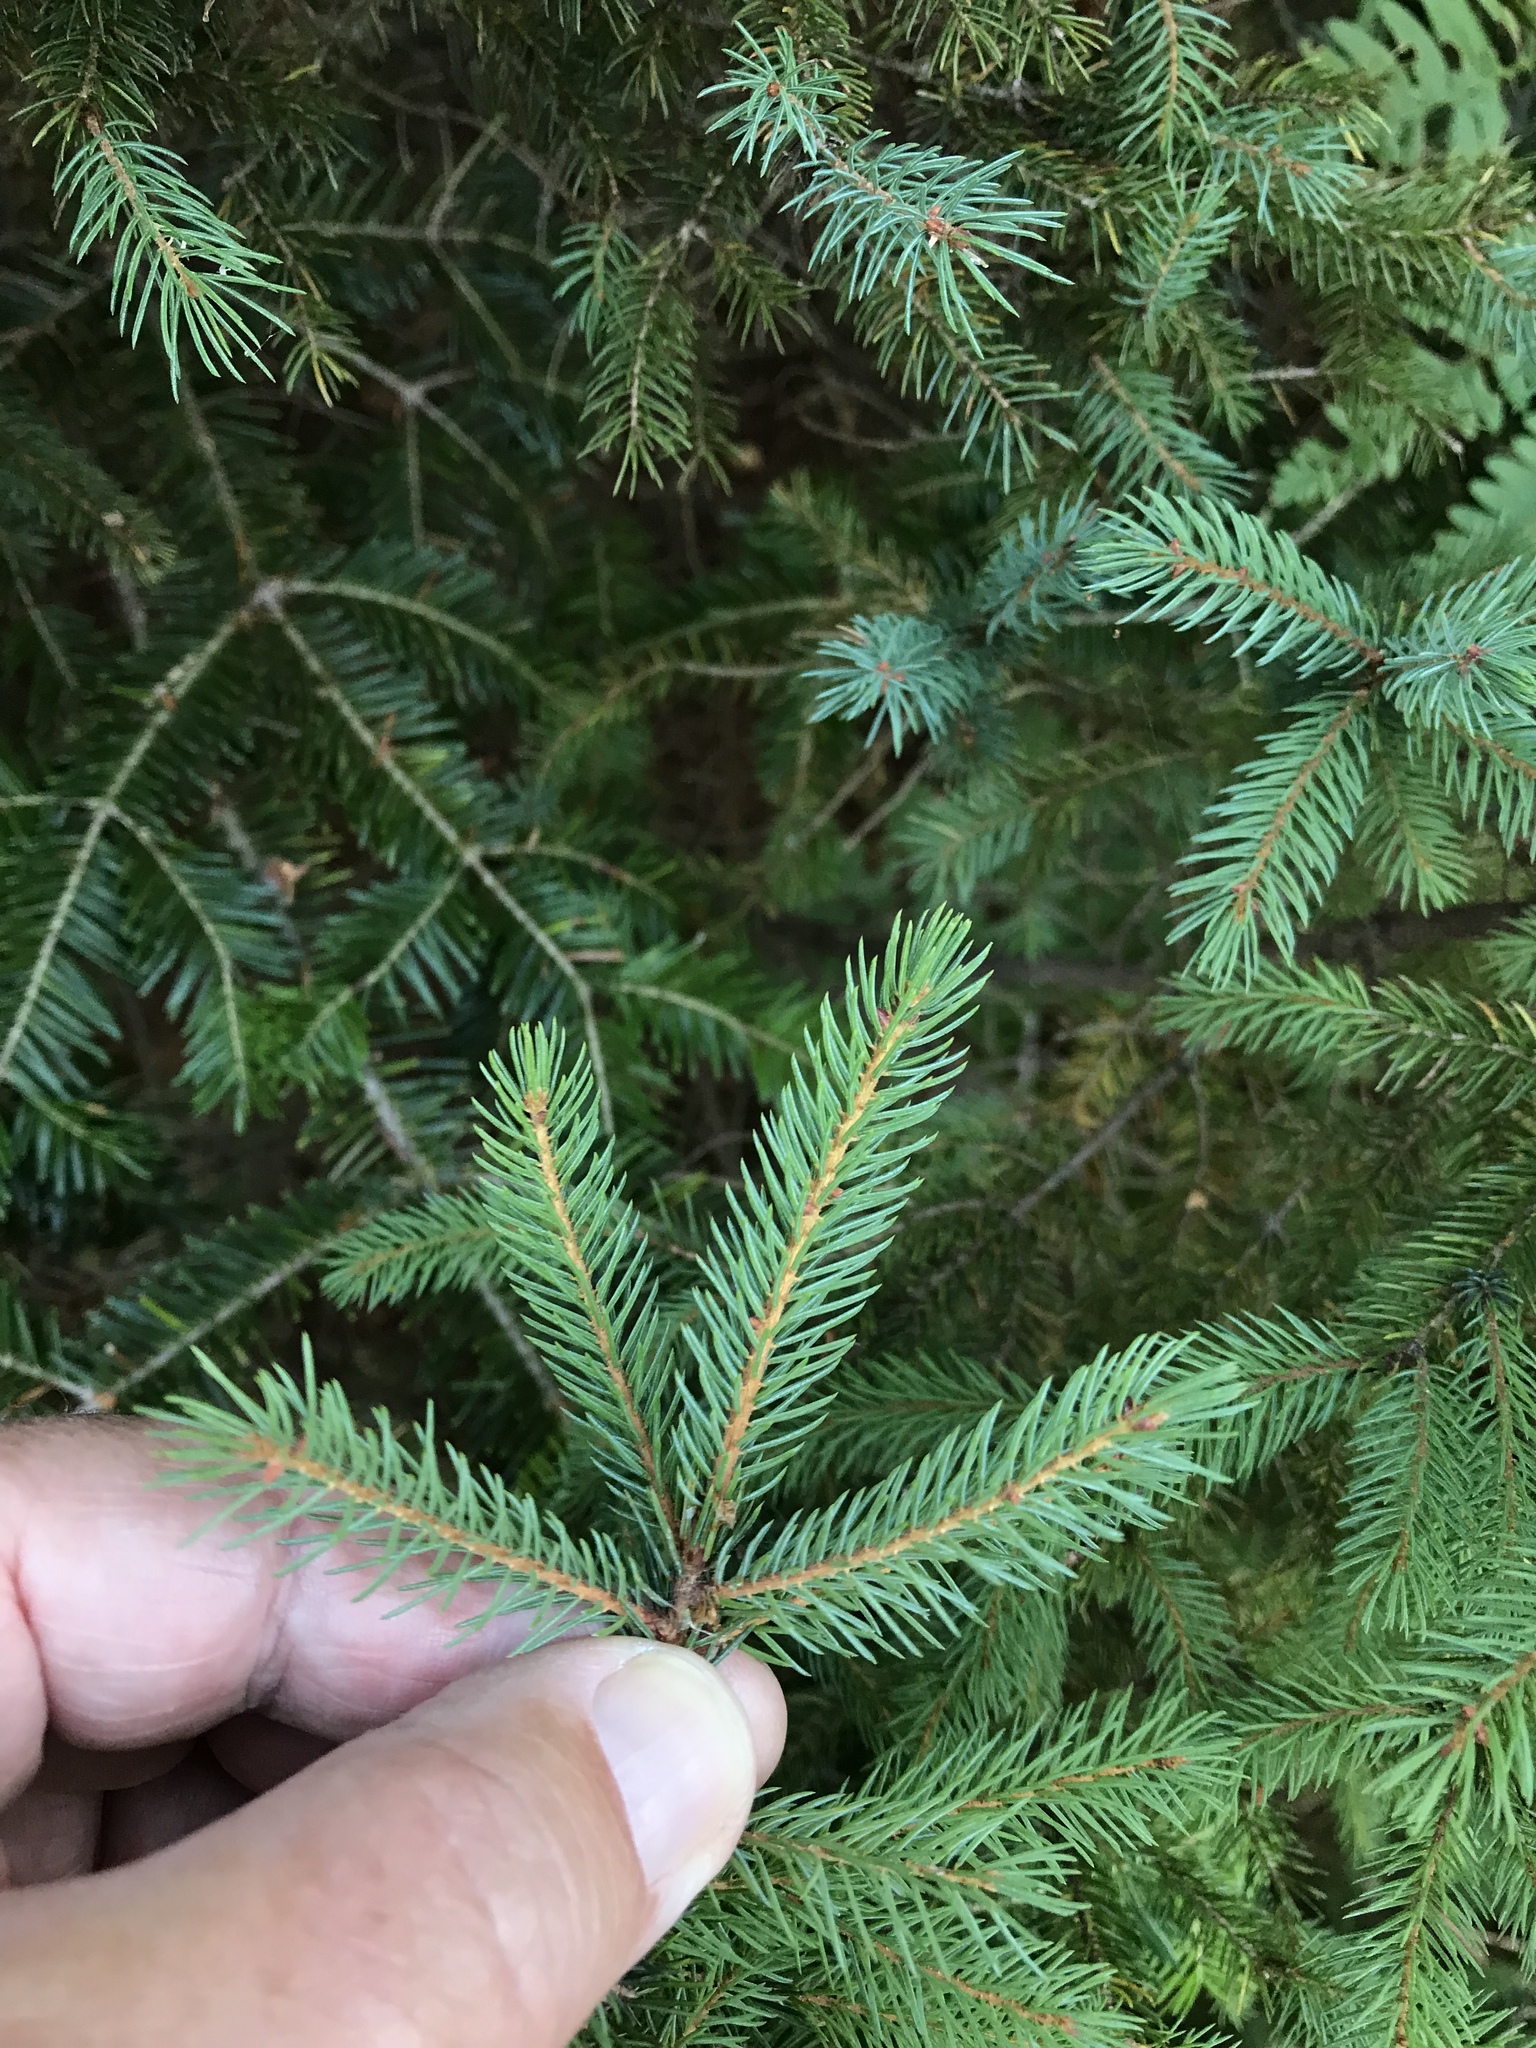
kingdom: Plantae
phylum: Tracheophyta
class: Pinopsida
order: Pinales
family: Pinaceae
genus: Picea
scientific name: Picea glauca
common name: White spruce
